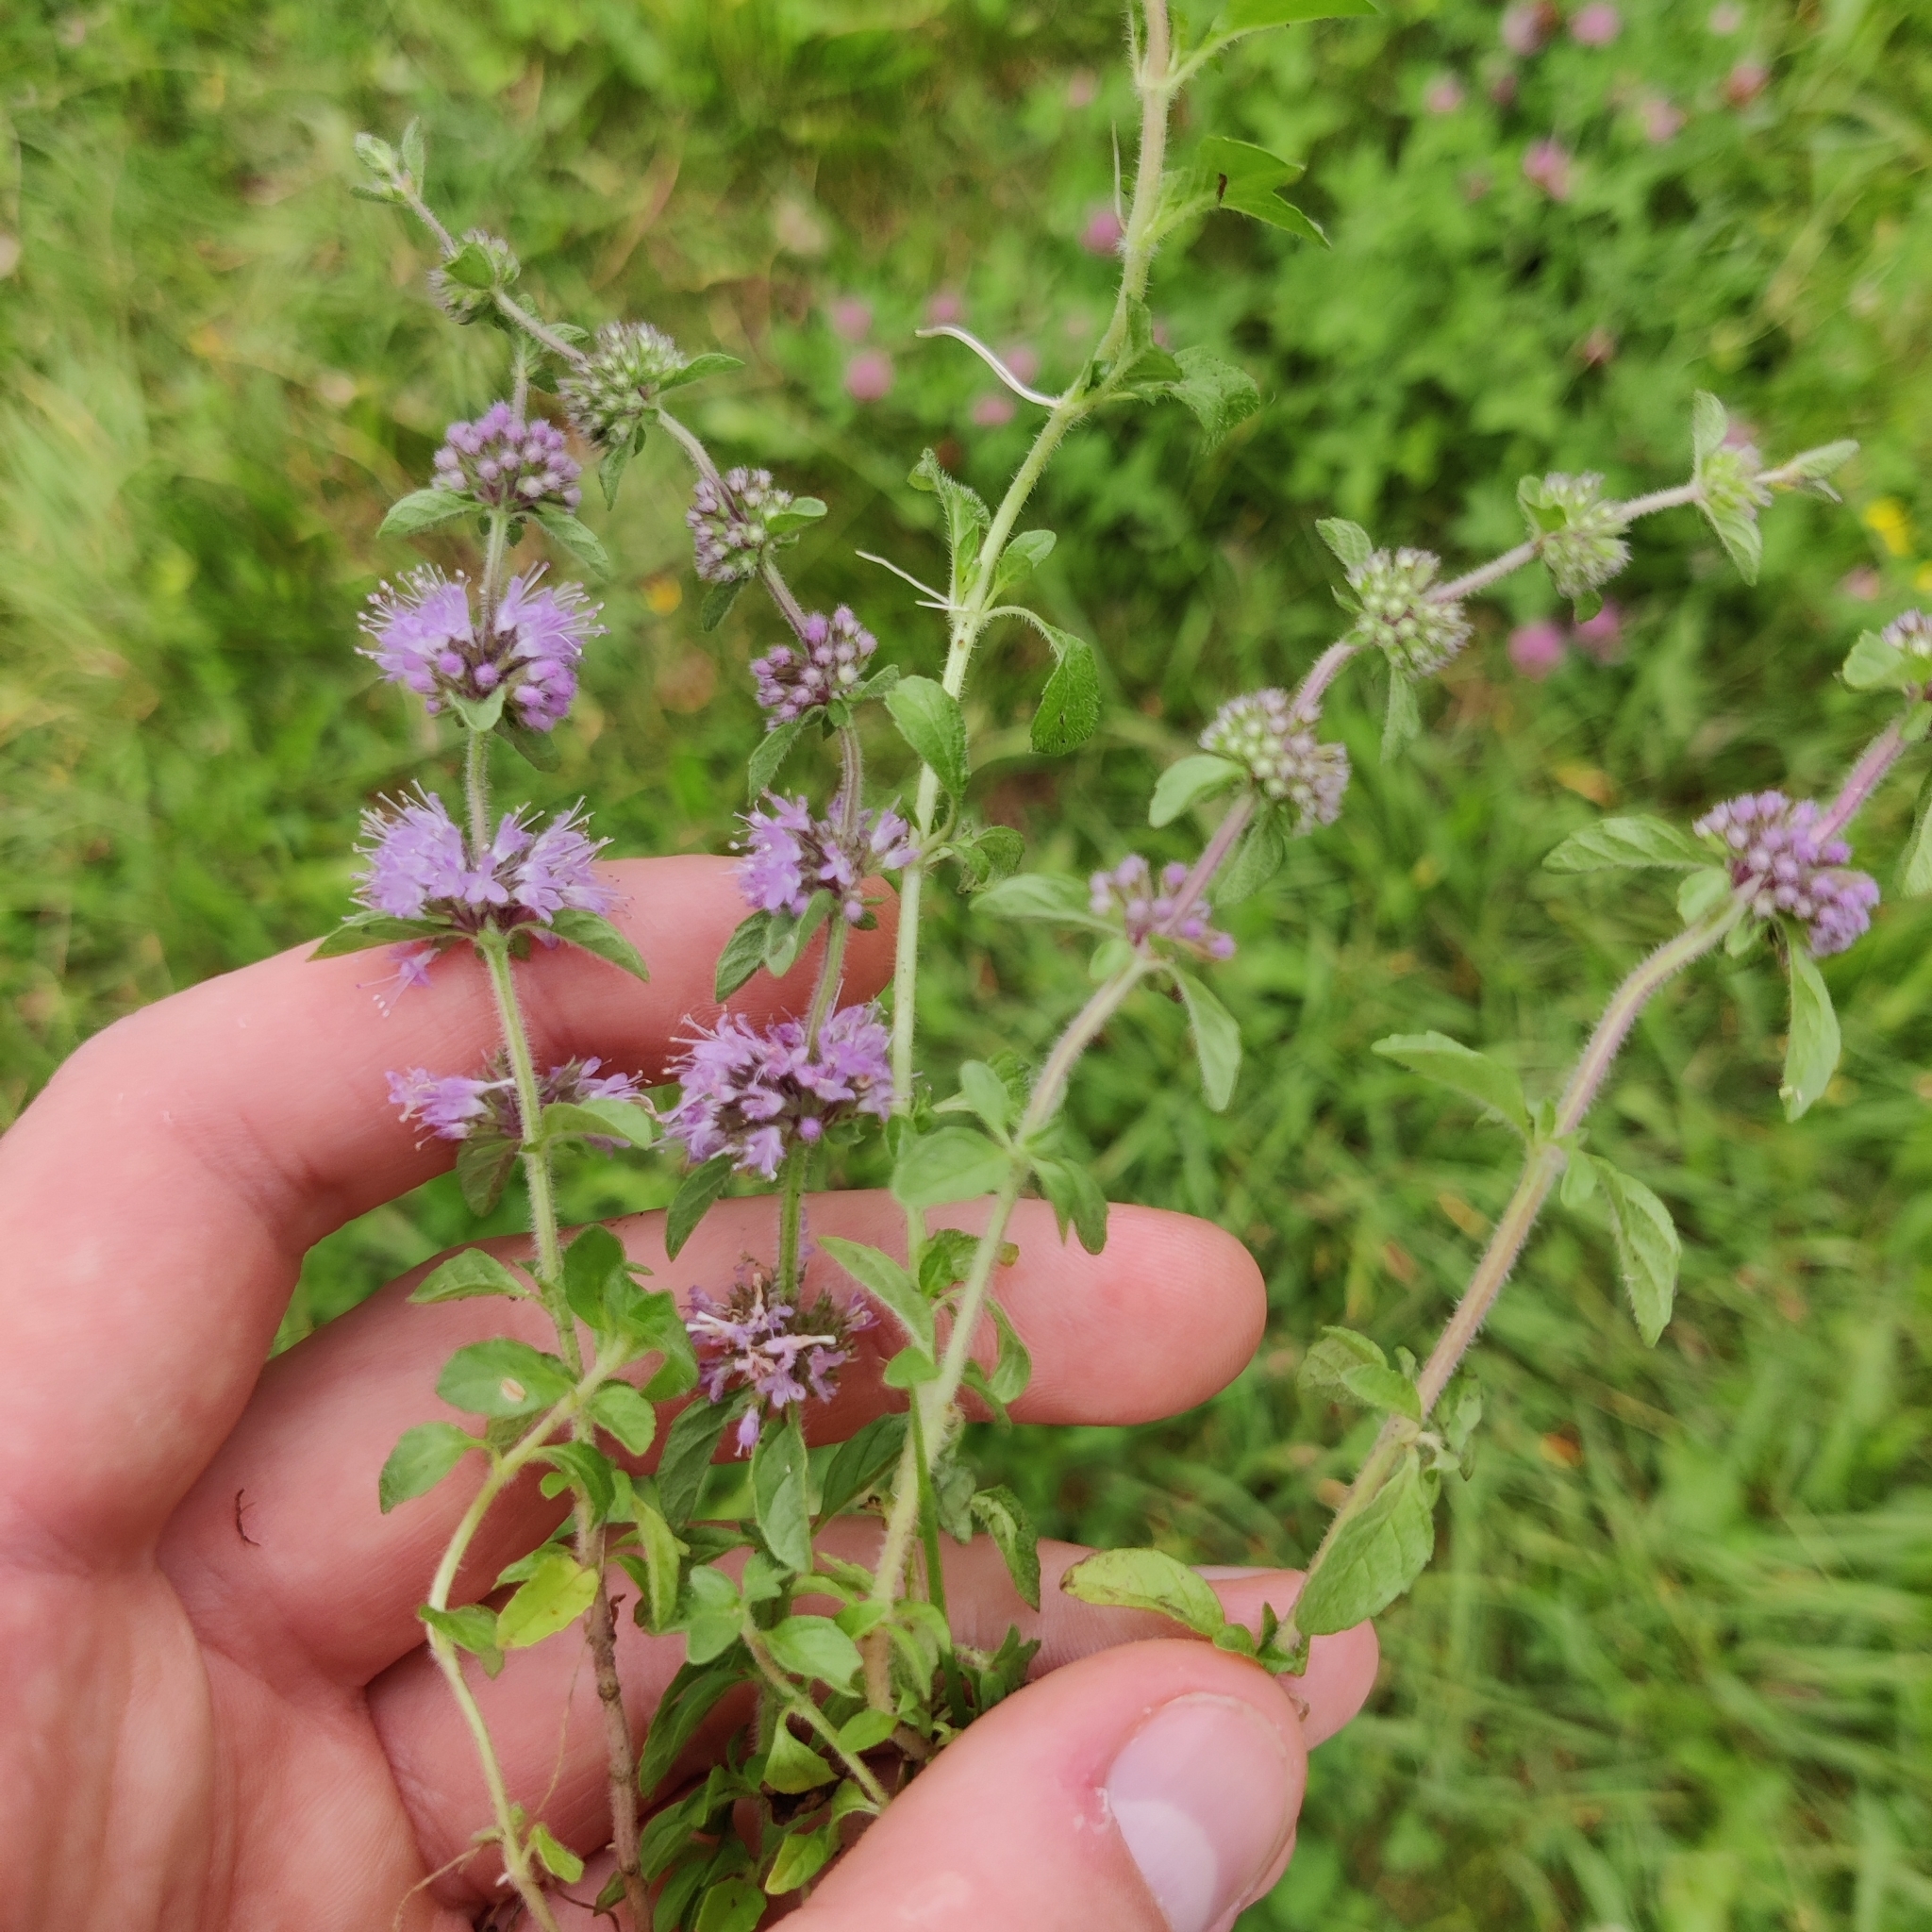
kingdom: Plantae
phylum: Tracheophyta
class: Magnoliopsida
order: Lamiales
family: Lamiaceae
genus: Mentha
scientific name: Mentha pulegium
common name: Pennyroyal
